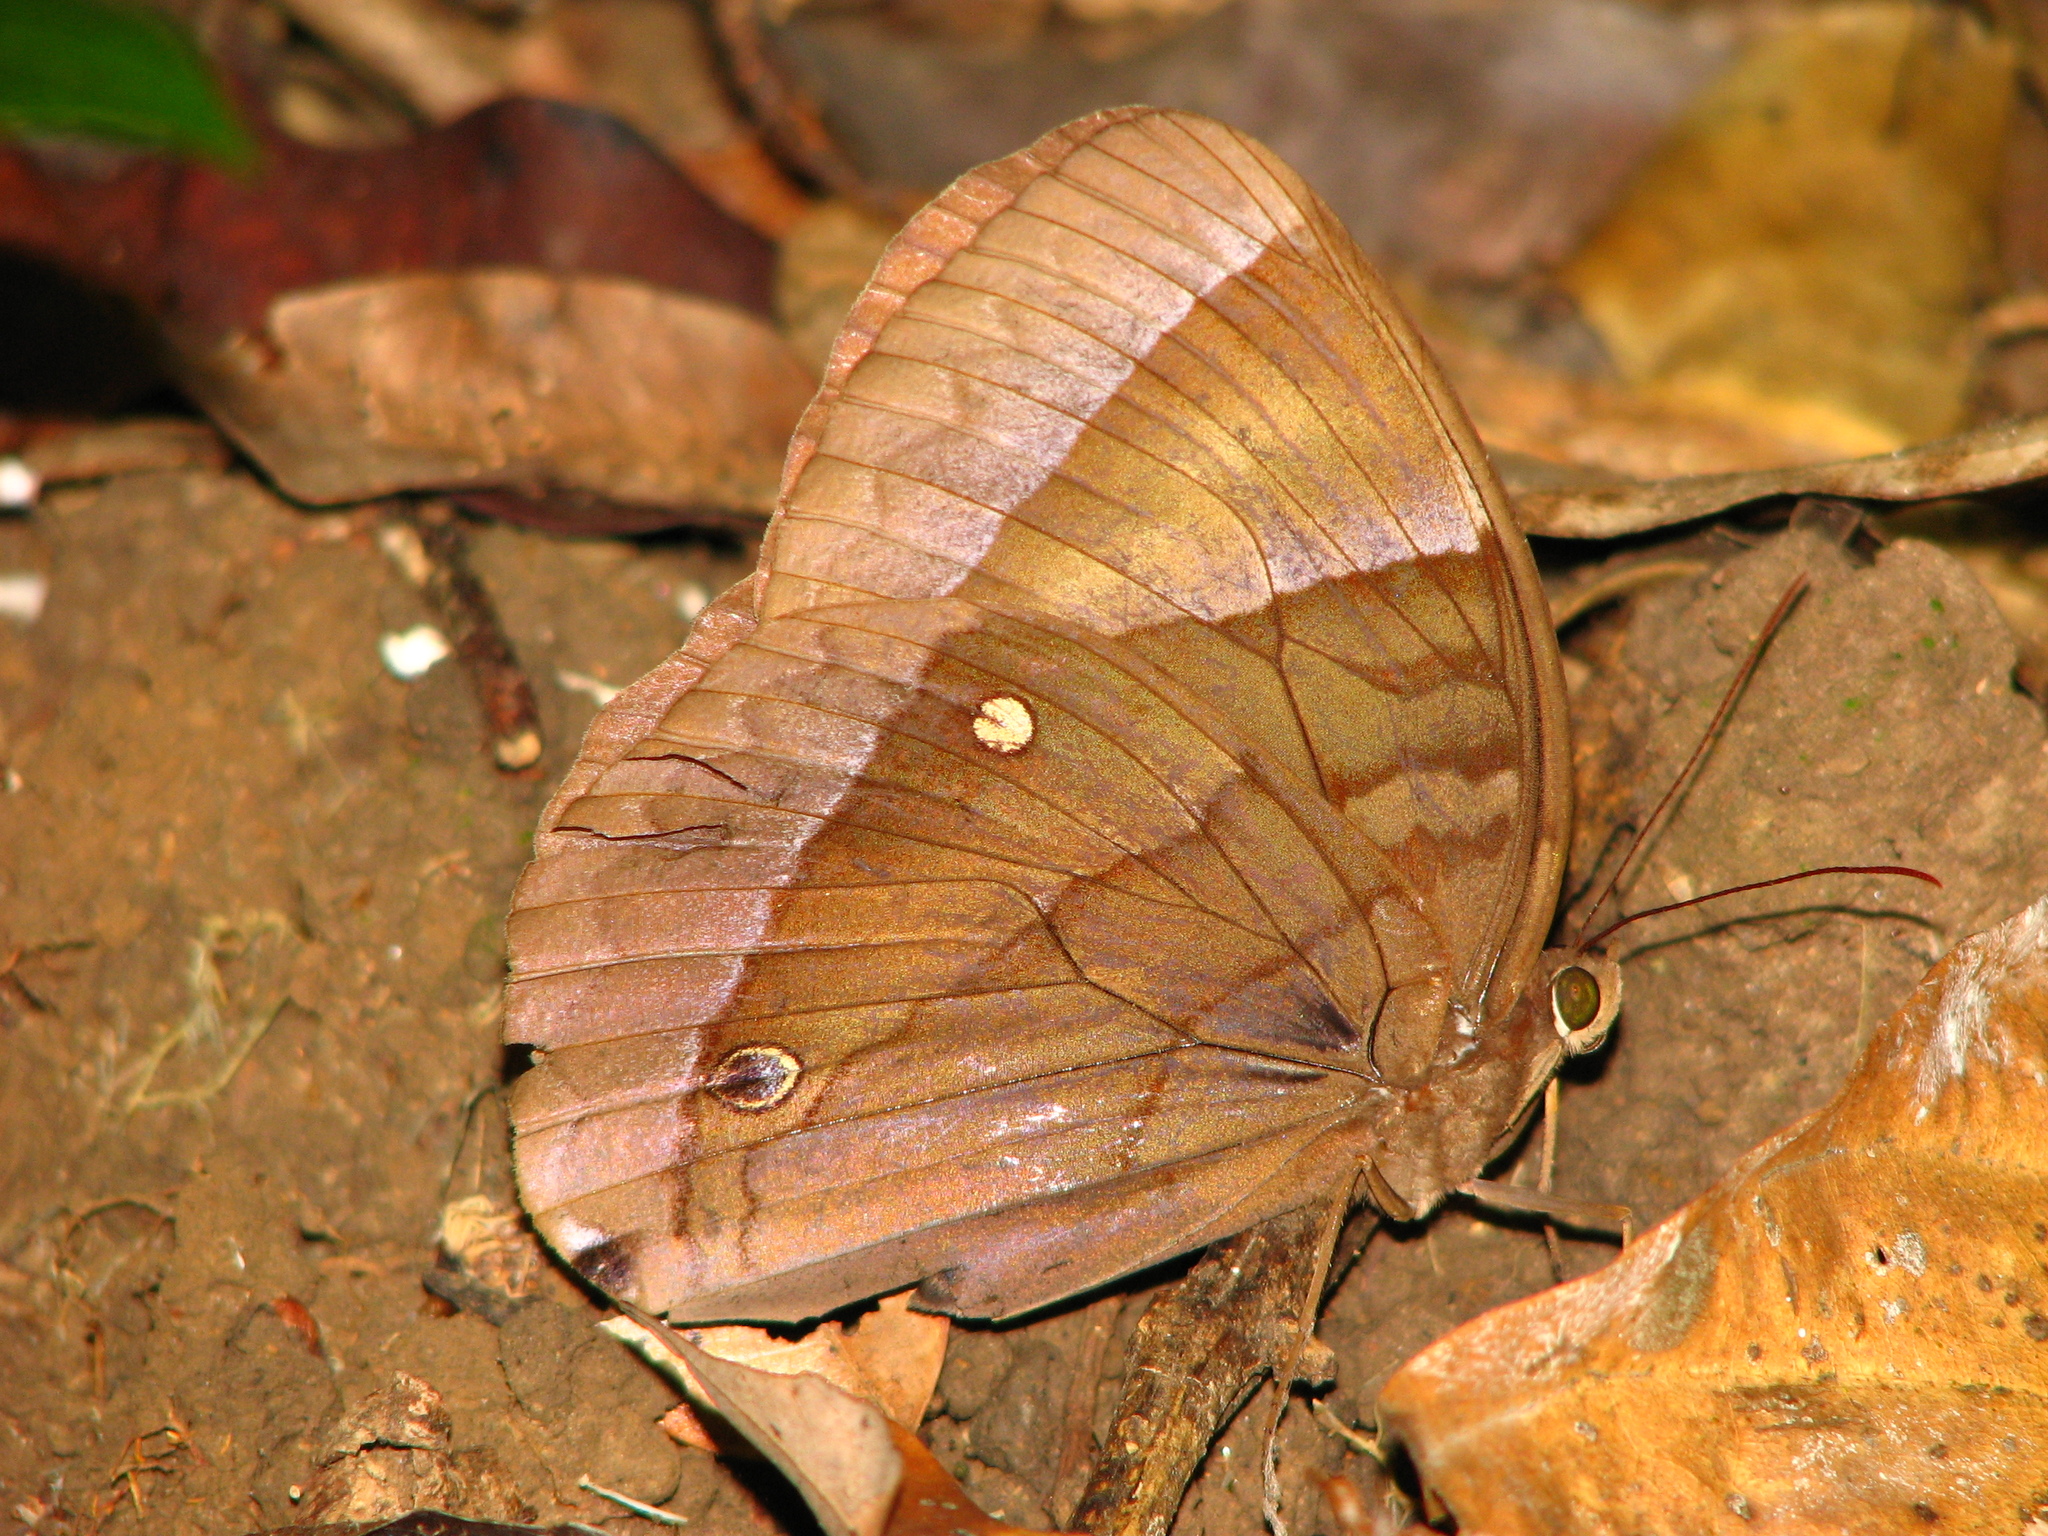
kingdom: Animalia
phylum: Arthropoda
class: Insecta
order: Lepidoptera
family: Nymphalidae
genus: Thaumantis
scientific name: Thaumantis diores
